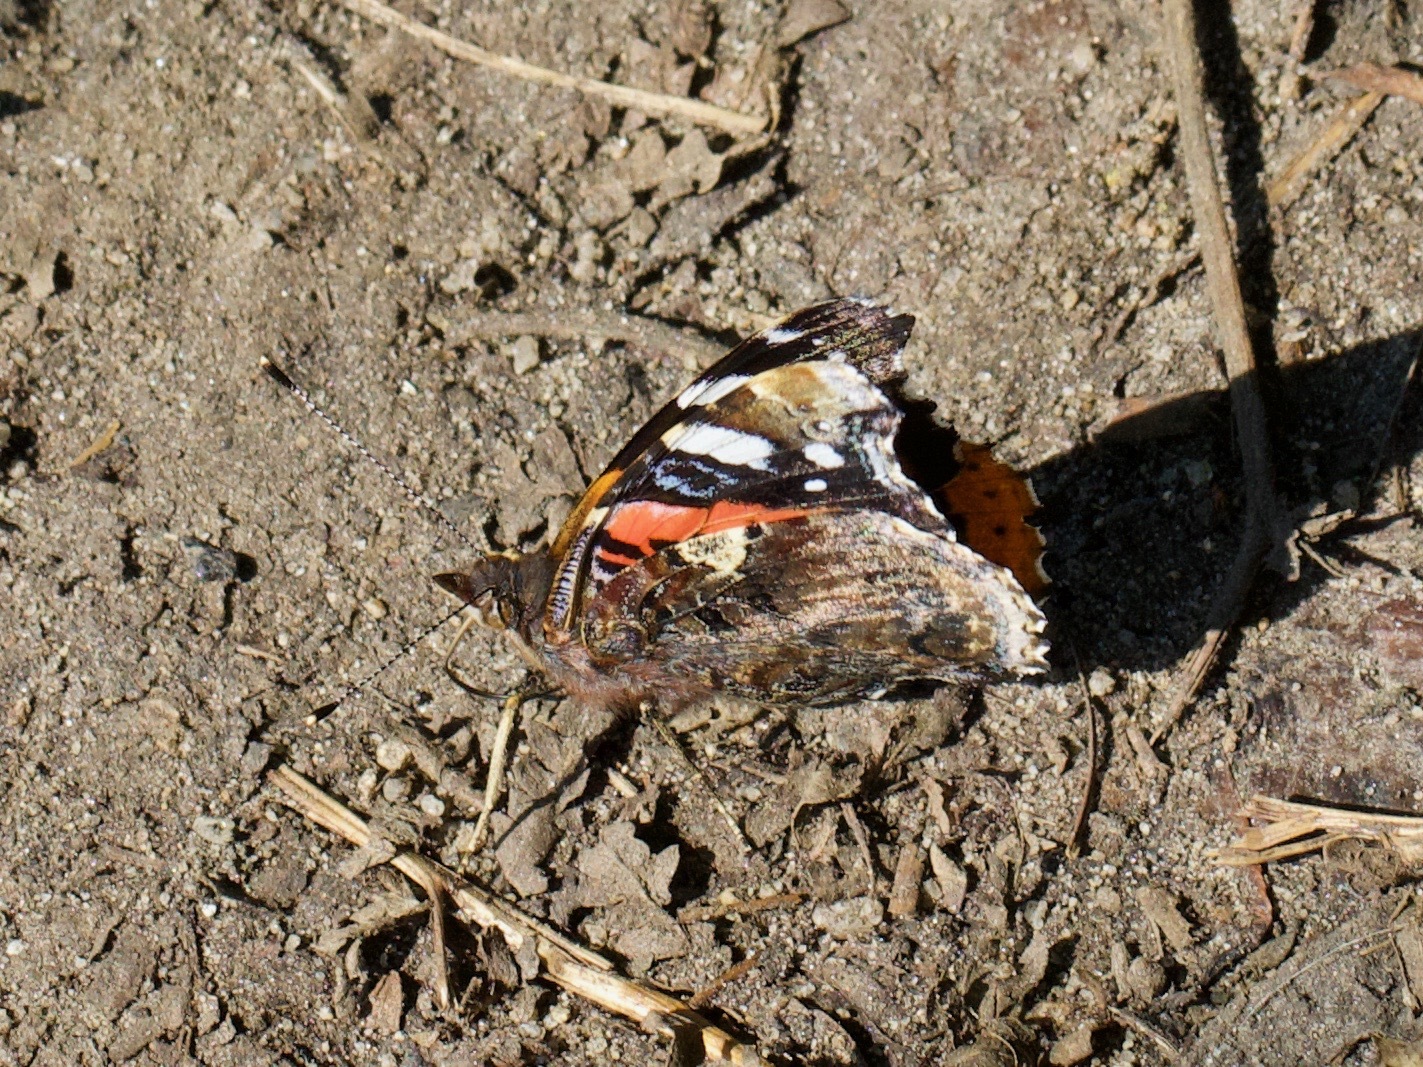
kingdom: Animalia
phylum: Arthropoda
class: Insecta
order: Lepidoptera
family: Nymphalidae
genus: Vanessa
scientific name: Vanessa atalanta
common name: Red admiral
